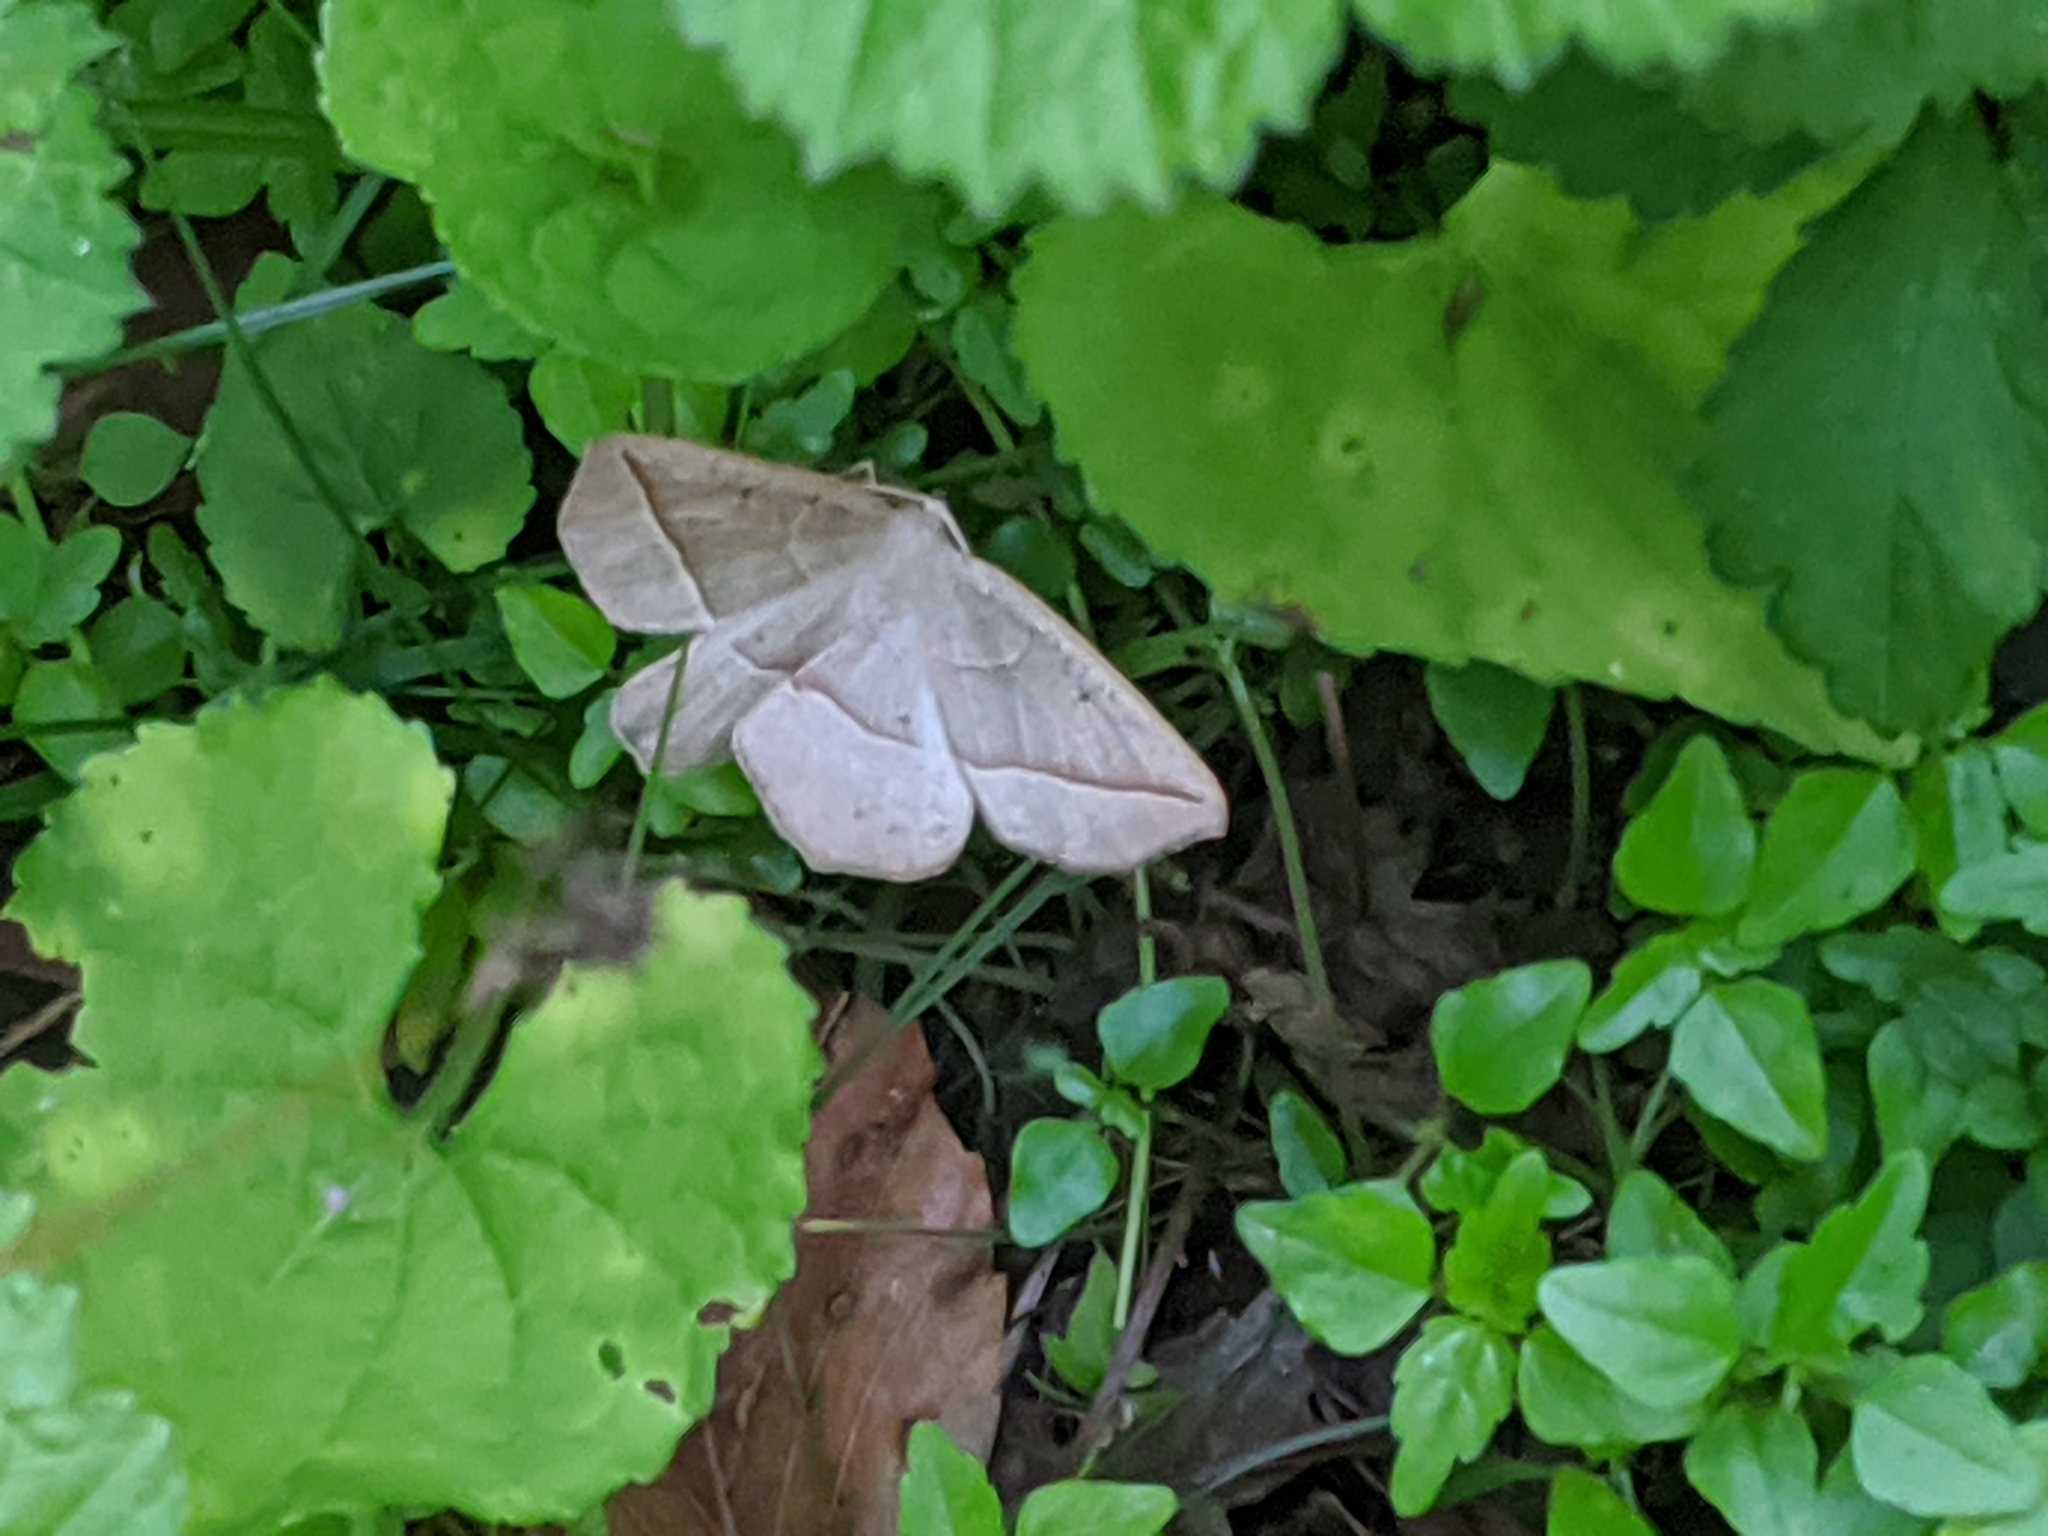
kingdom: Animalia
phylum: Arthropoda
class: Insecta
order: Lepidoptera
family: Geometridae
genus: Eusarca
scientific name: Eusarca confusaria
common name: Confused eusarca
